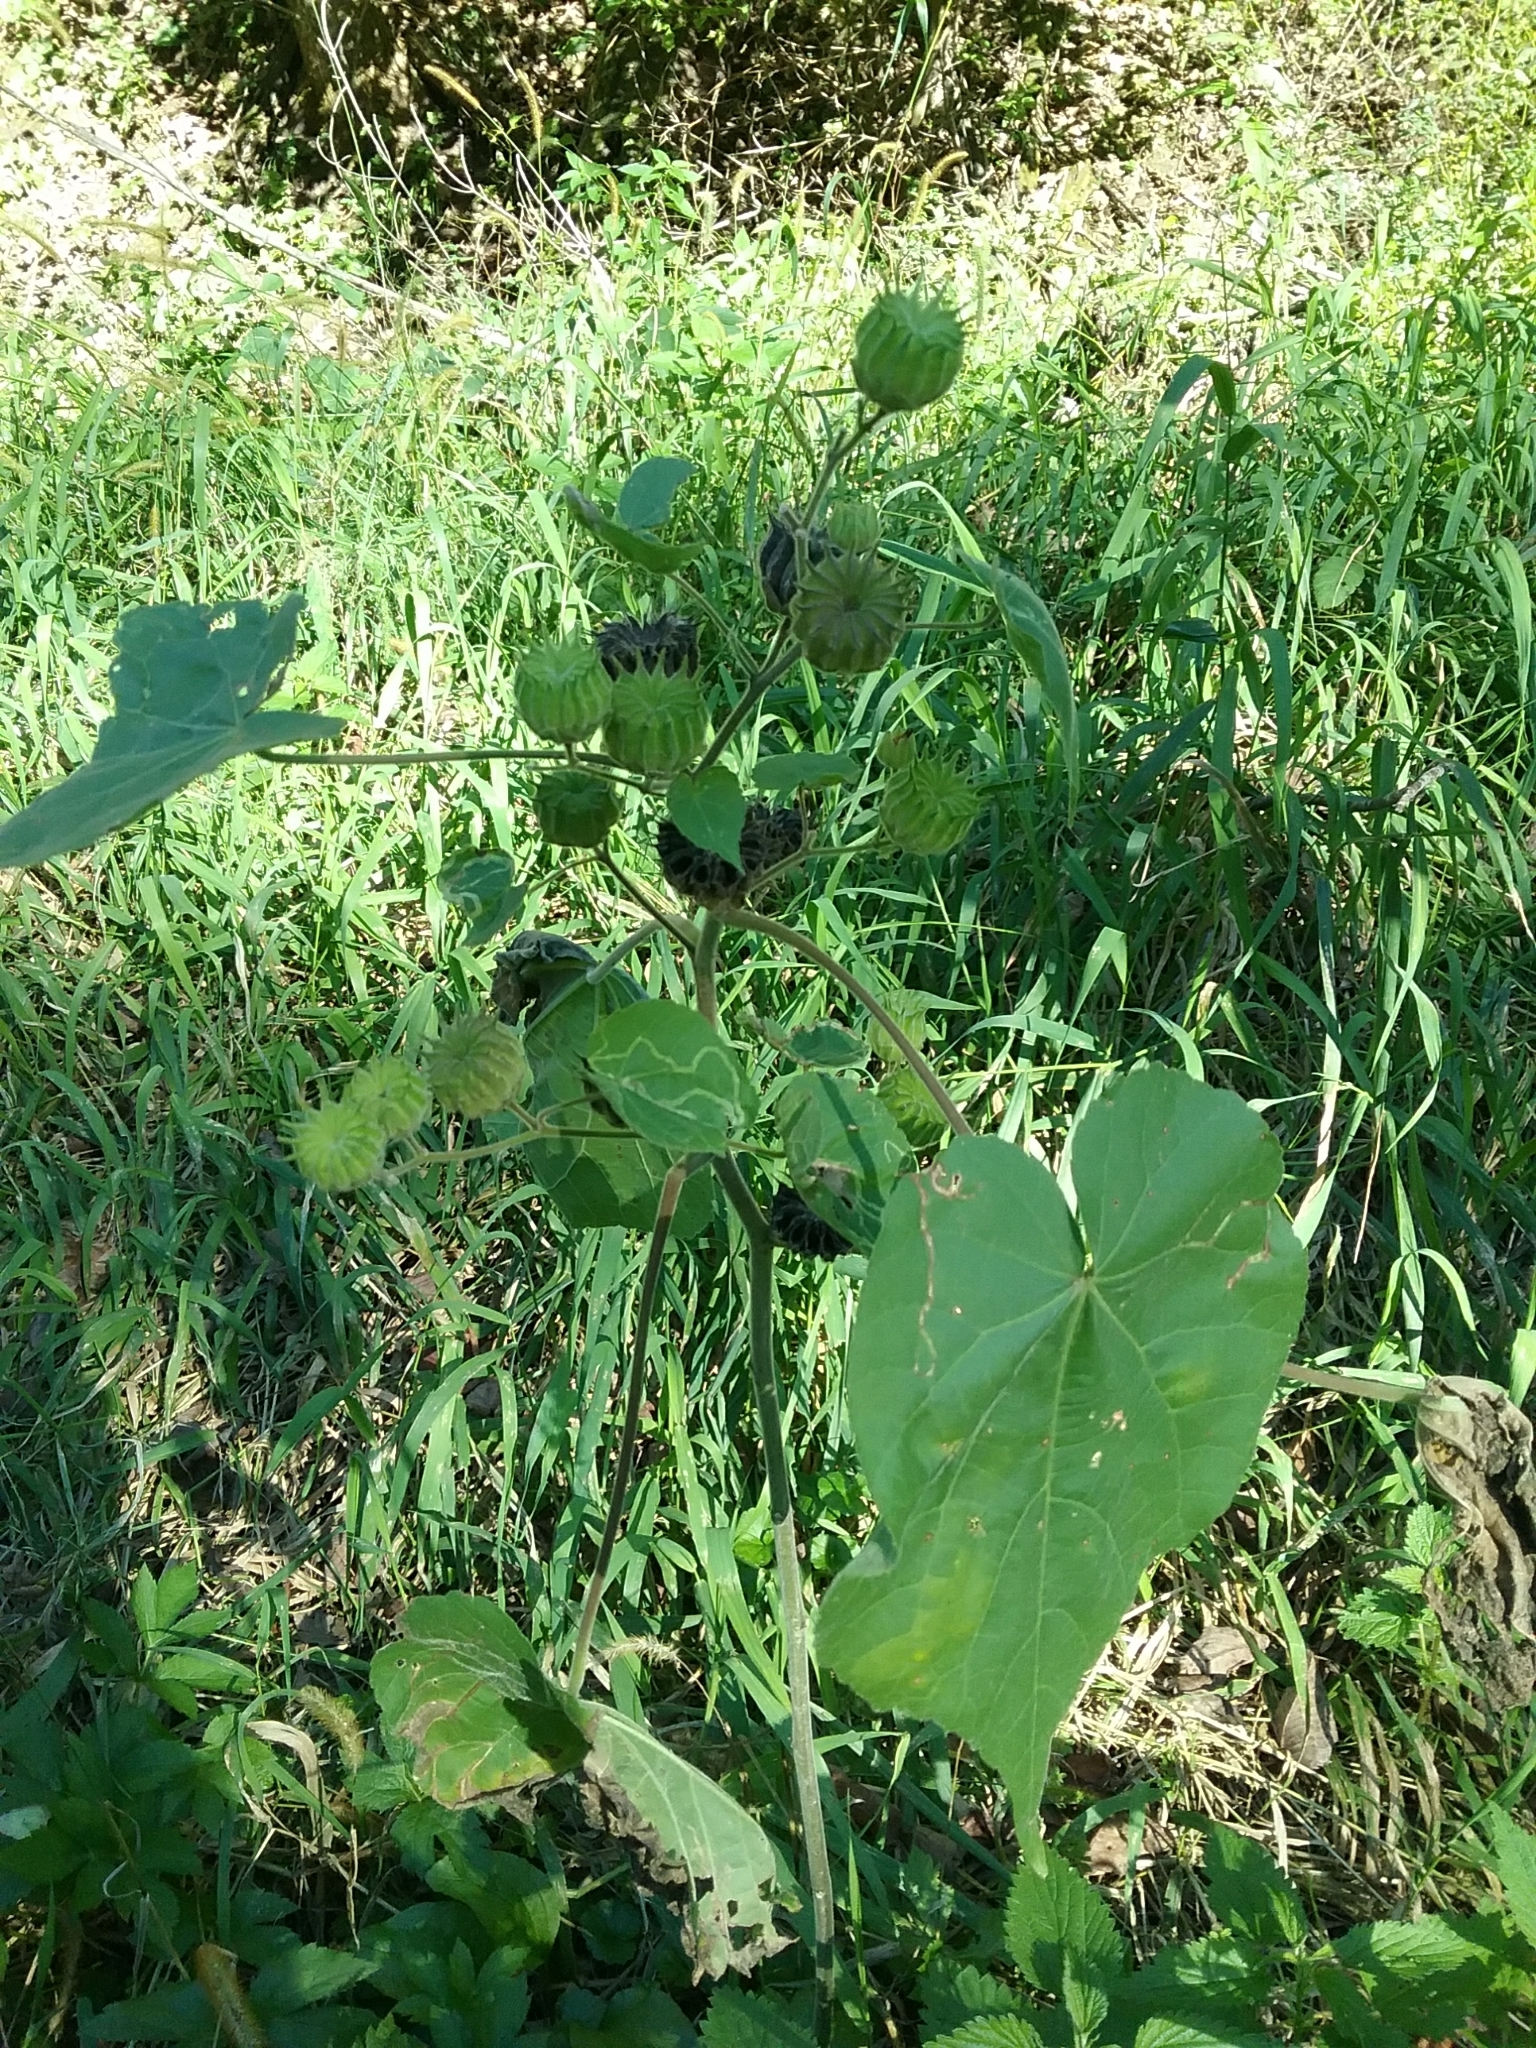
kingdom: Plantae
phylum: Tracheophyta
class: Magnoliopsida
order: Malvales
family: Malvaceae
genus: Abutilon
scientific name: Abutilon theophrasti
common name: Velvetleaf
